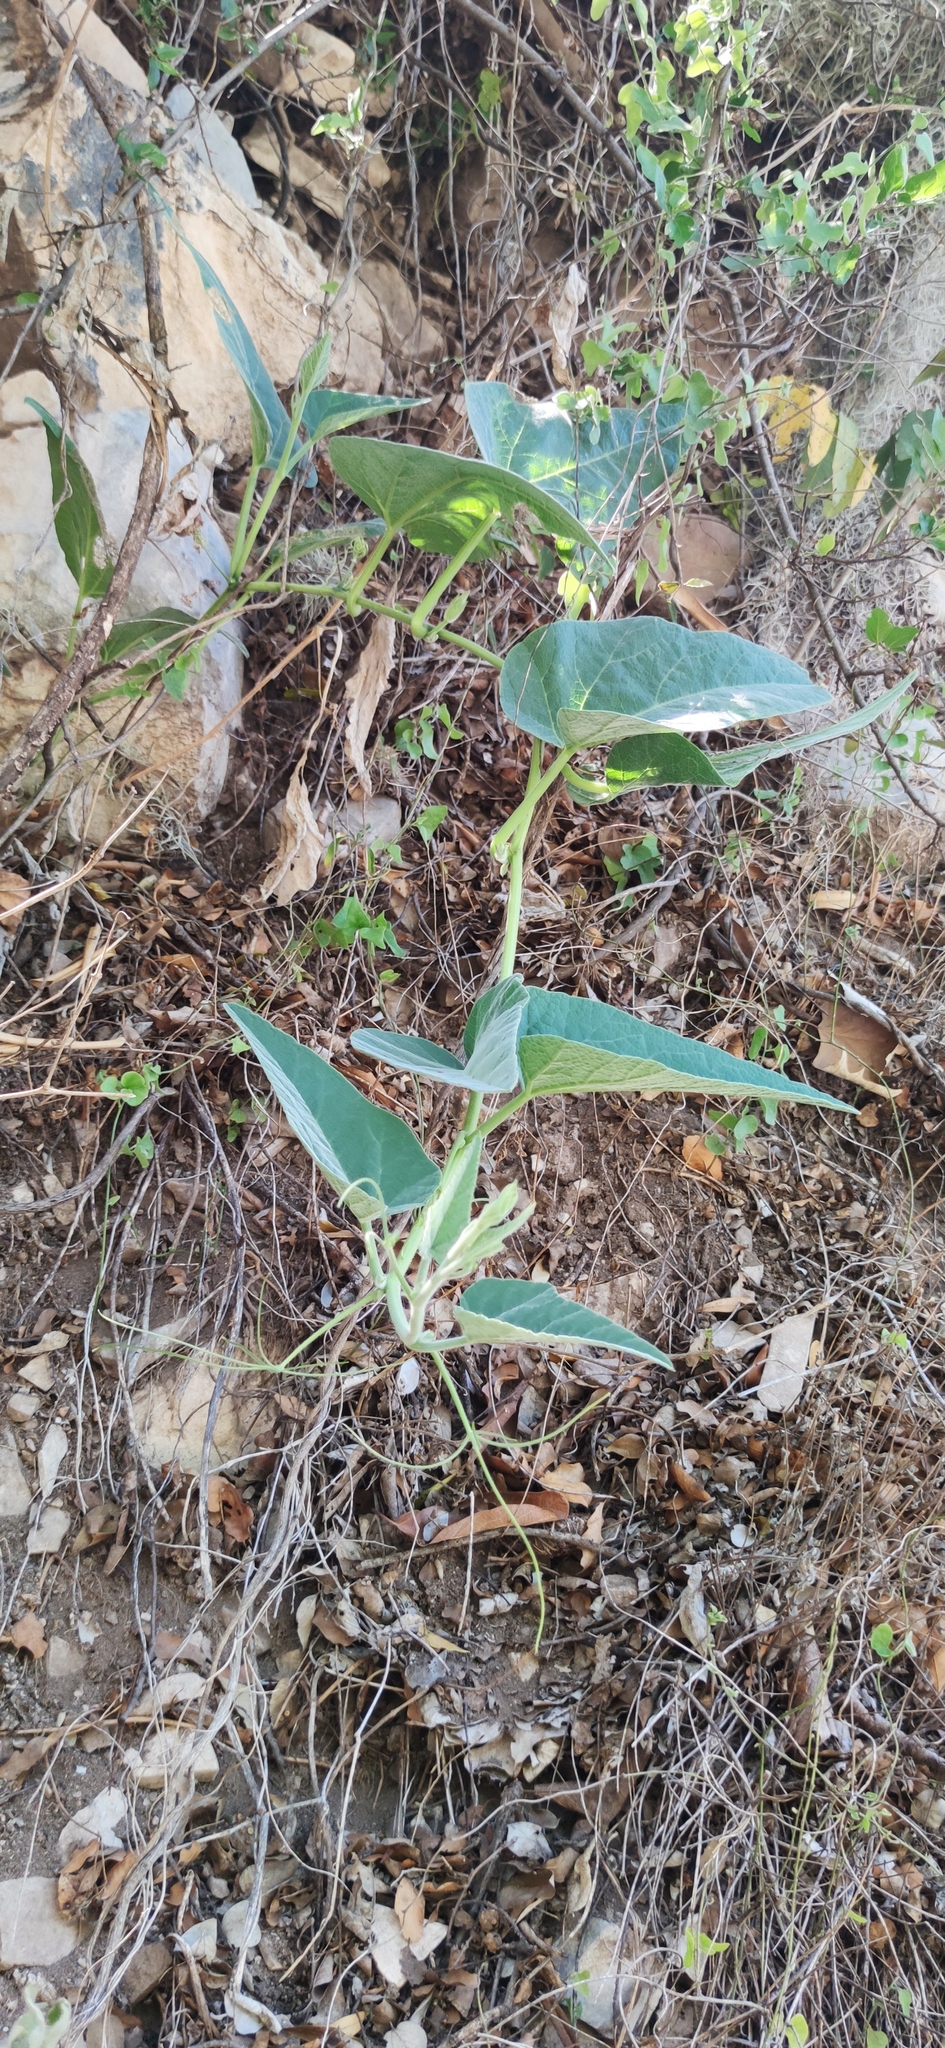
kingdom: Plantae
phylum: Tracheophyta
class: Magnoliopsida
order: Cucurbitales
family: Cucurbitaceae
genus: Cucurbita
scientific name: Cucurbita foetidissima
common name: Buffalo gourd
